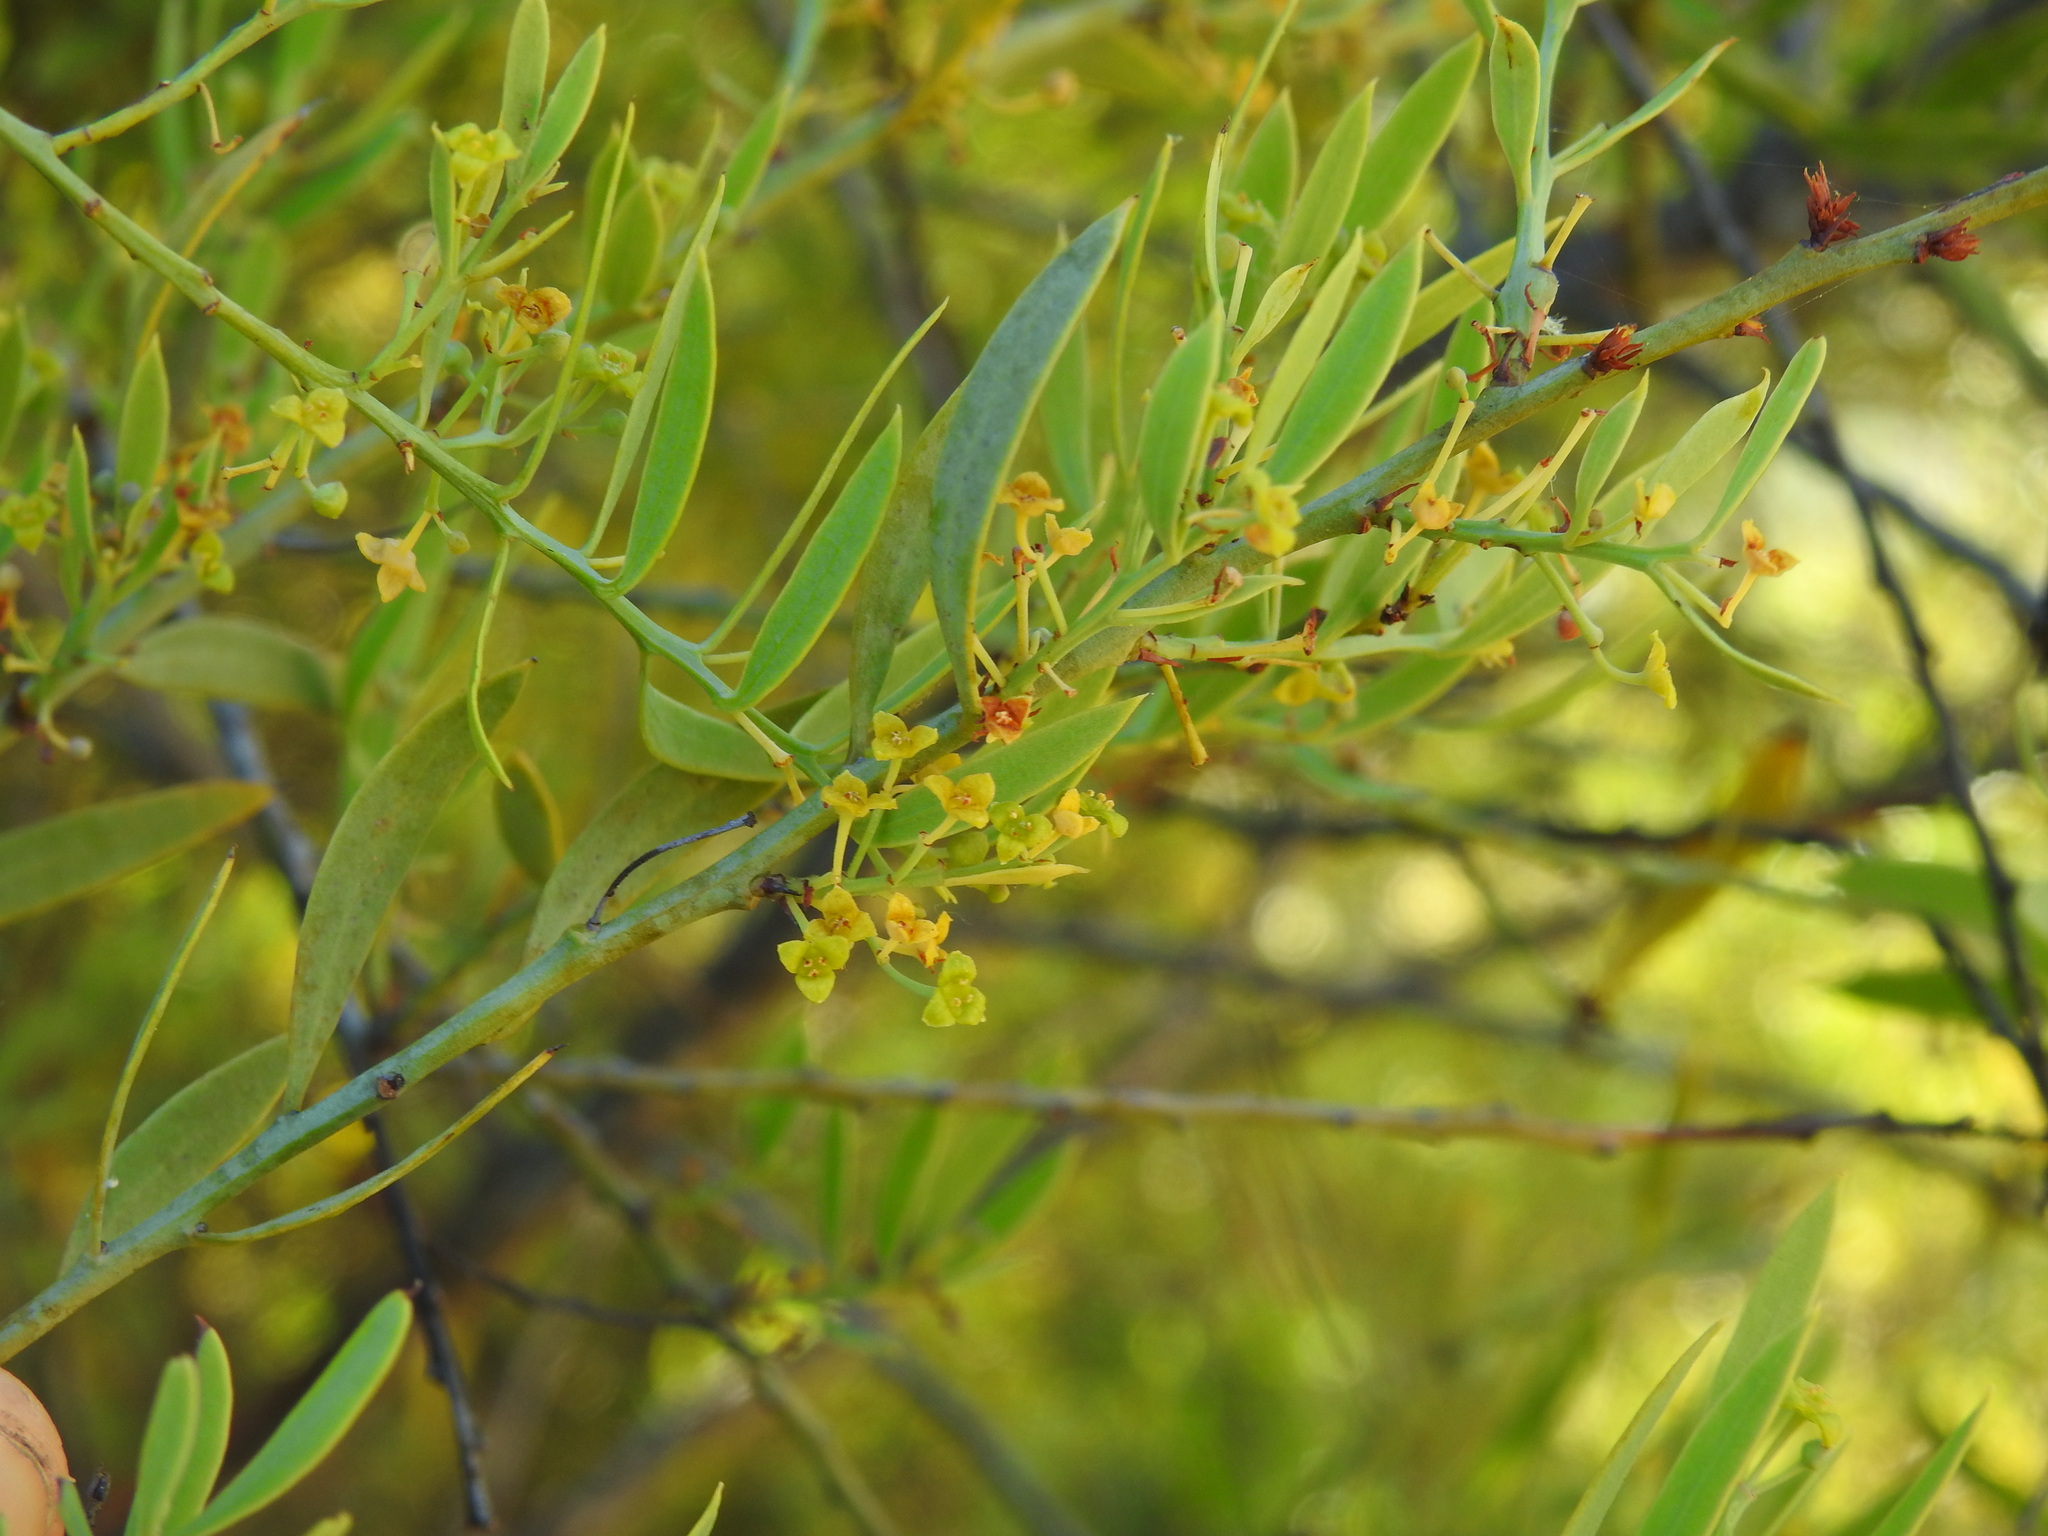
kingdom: Plantae
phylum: Tracheophyta
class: Magnoliopsida
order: Santalales
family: Santalaceae
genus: Osyris
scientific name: Osyris lanceolata
